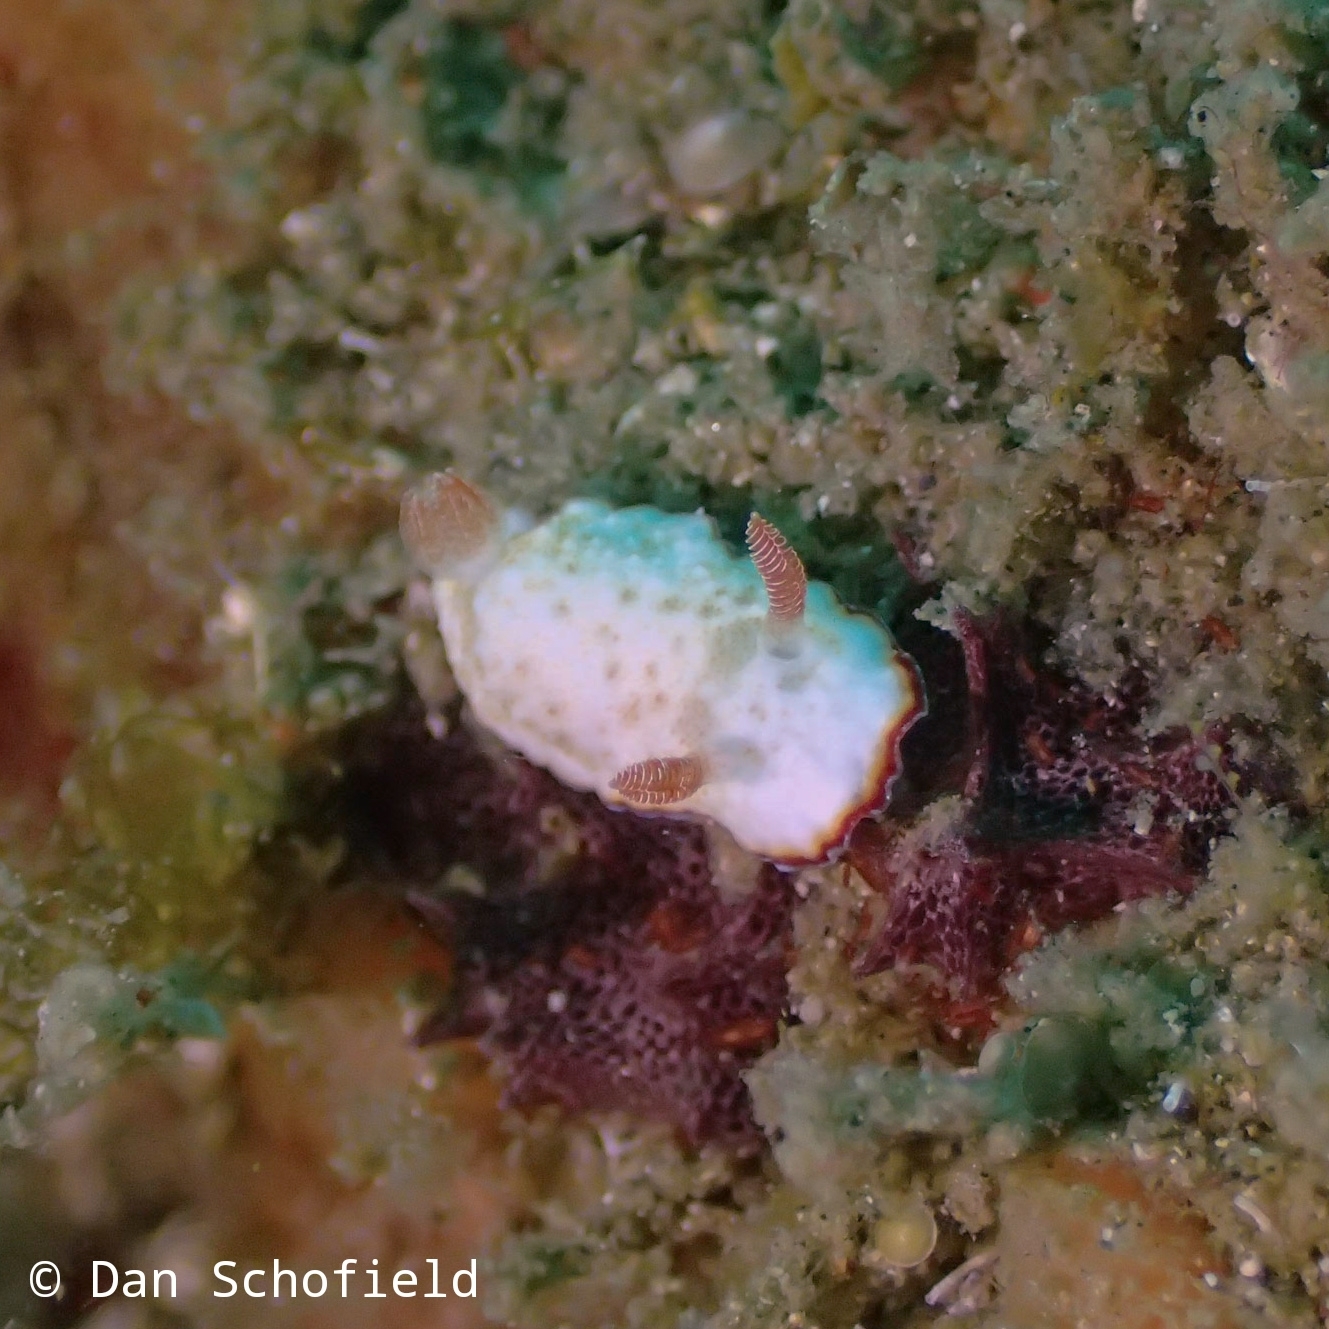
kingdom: Animalia
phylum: Mollusca
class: Gastropoda
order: Nudibranchia
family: Chromodorididae
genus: Goniobranchus
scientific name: Goniobranchus preciosus
